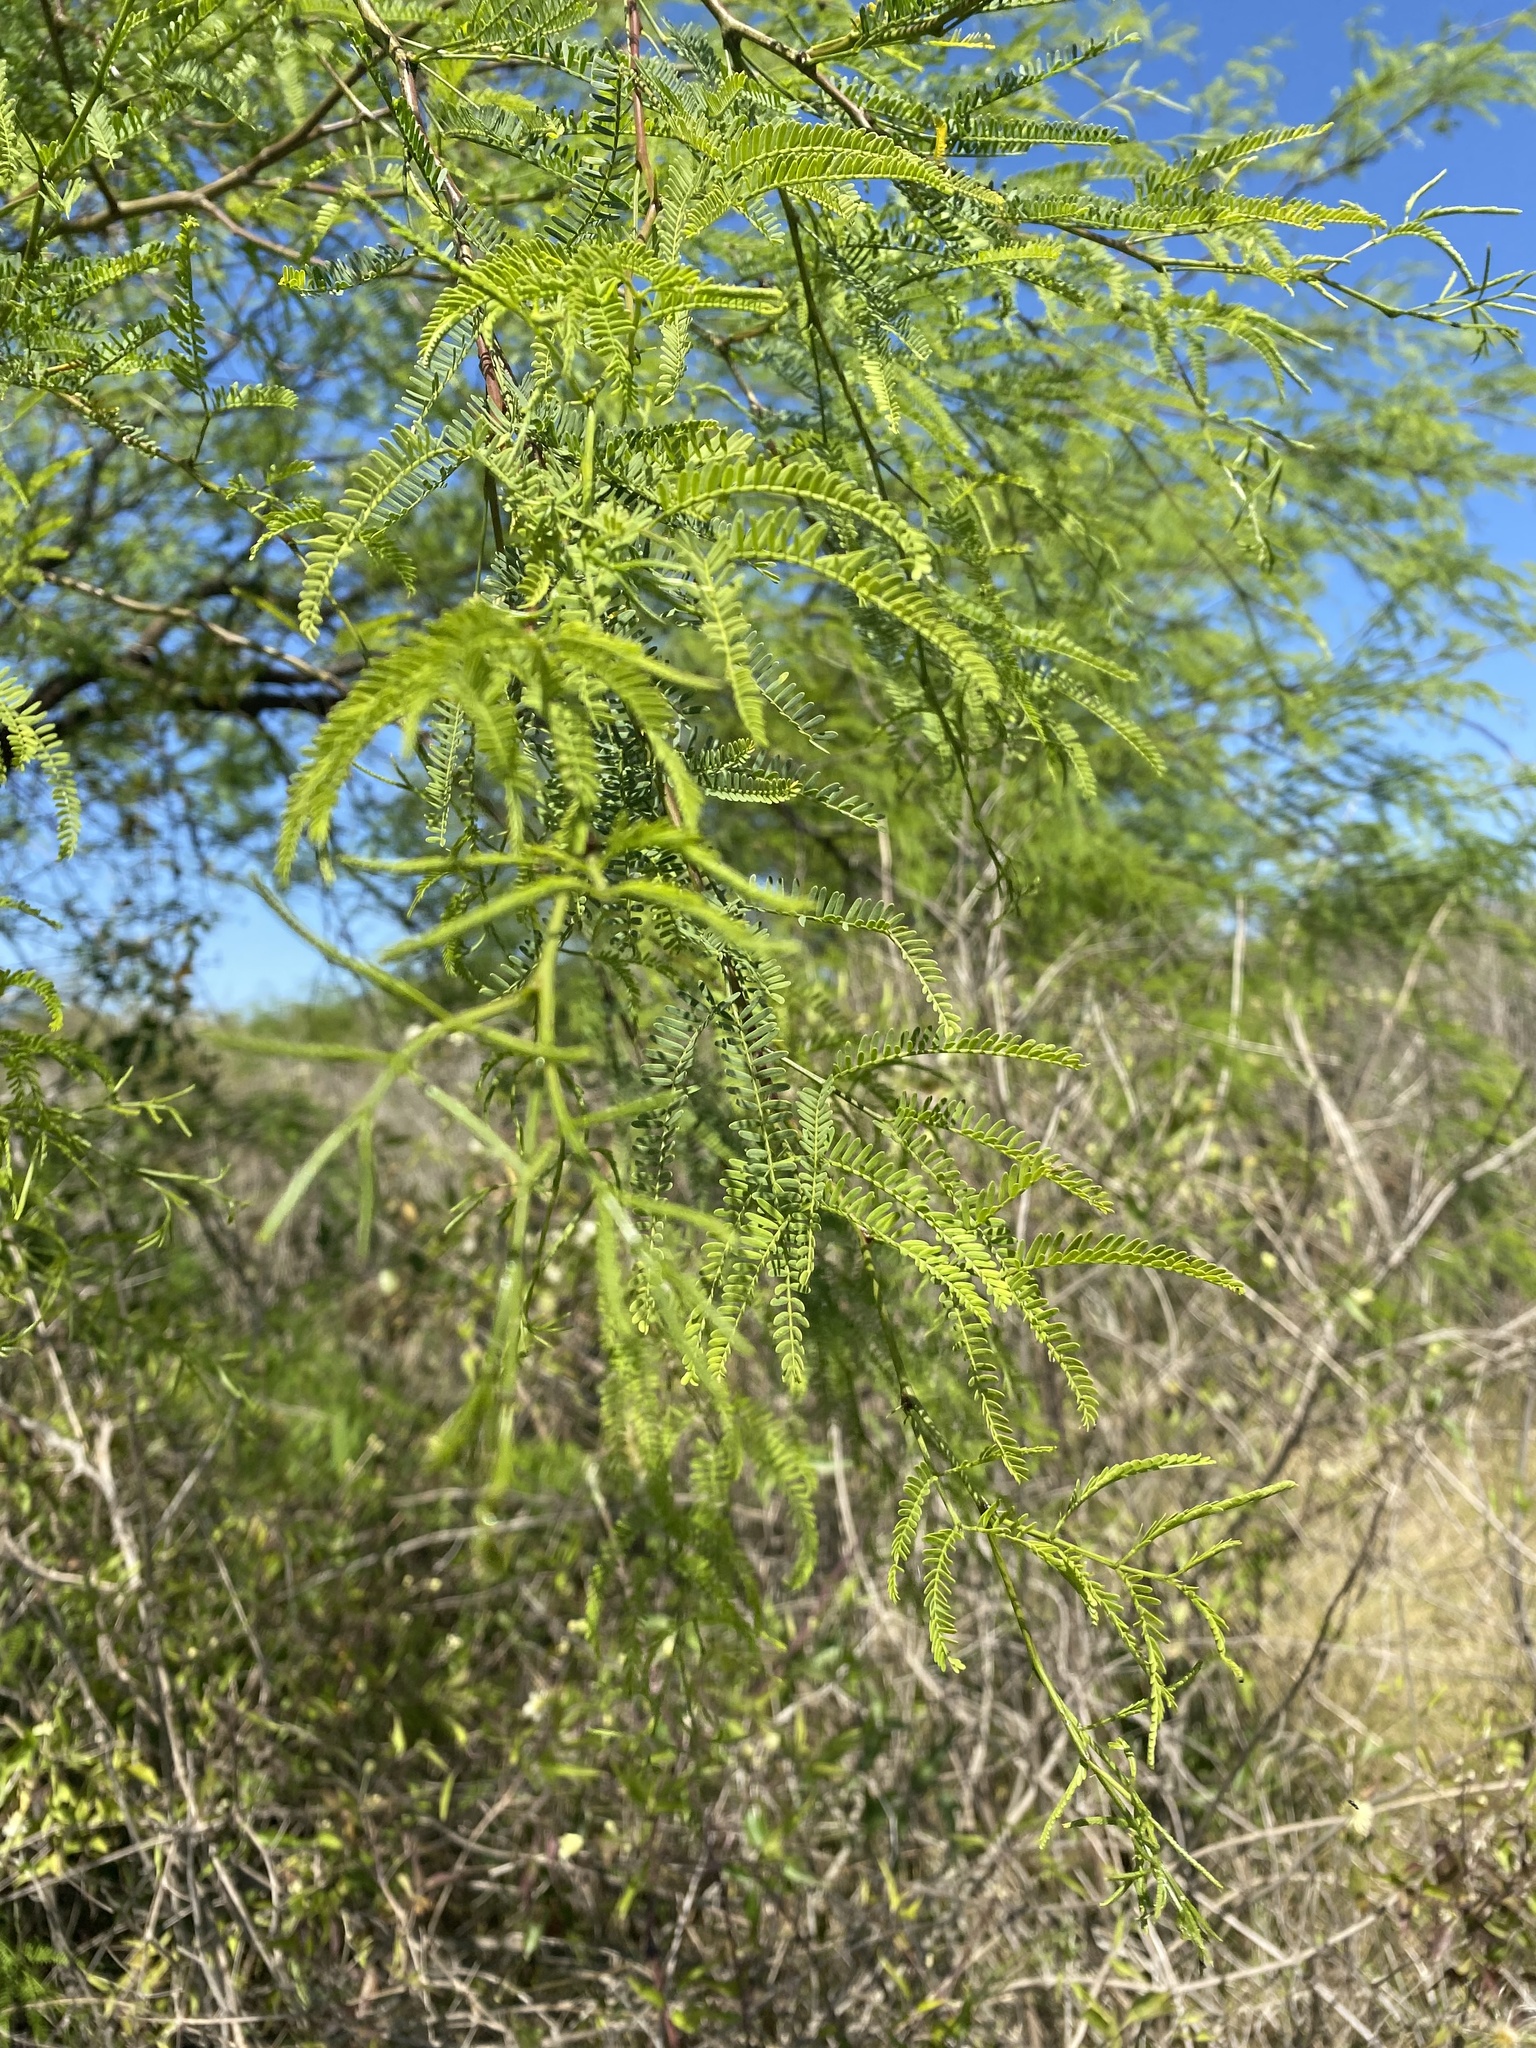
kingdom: Plantae
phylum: Tracheophyta
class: Magnoliopsida
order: Fabales
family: Fabaceae
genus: Prosopis
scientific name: Prosopis nigra
